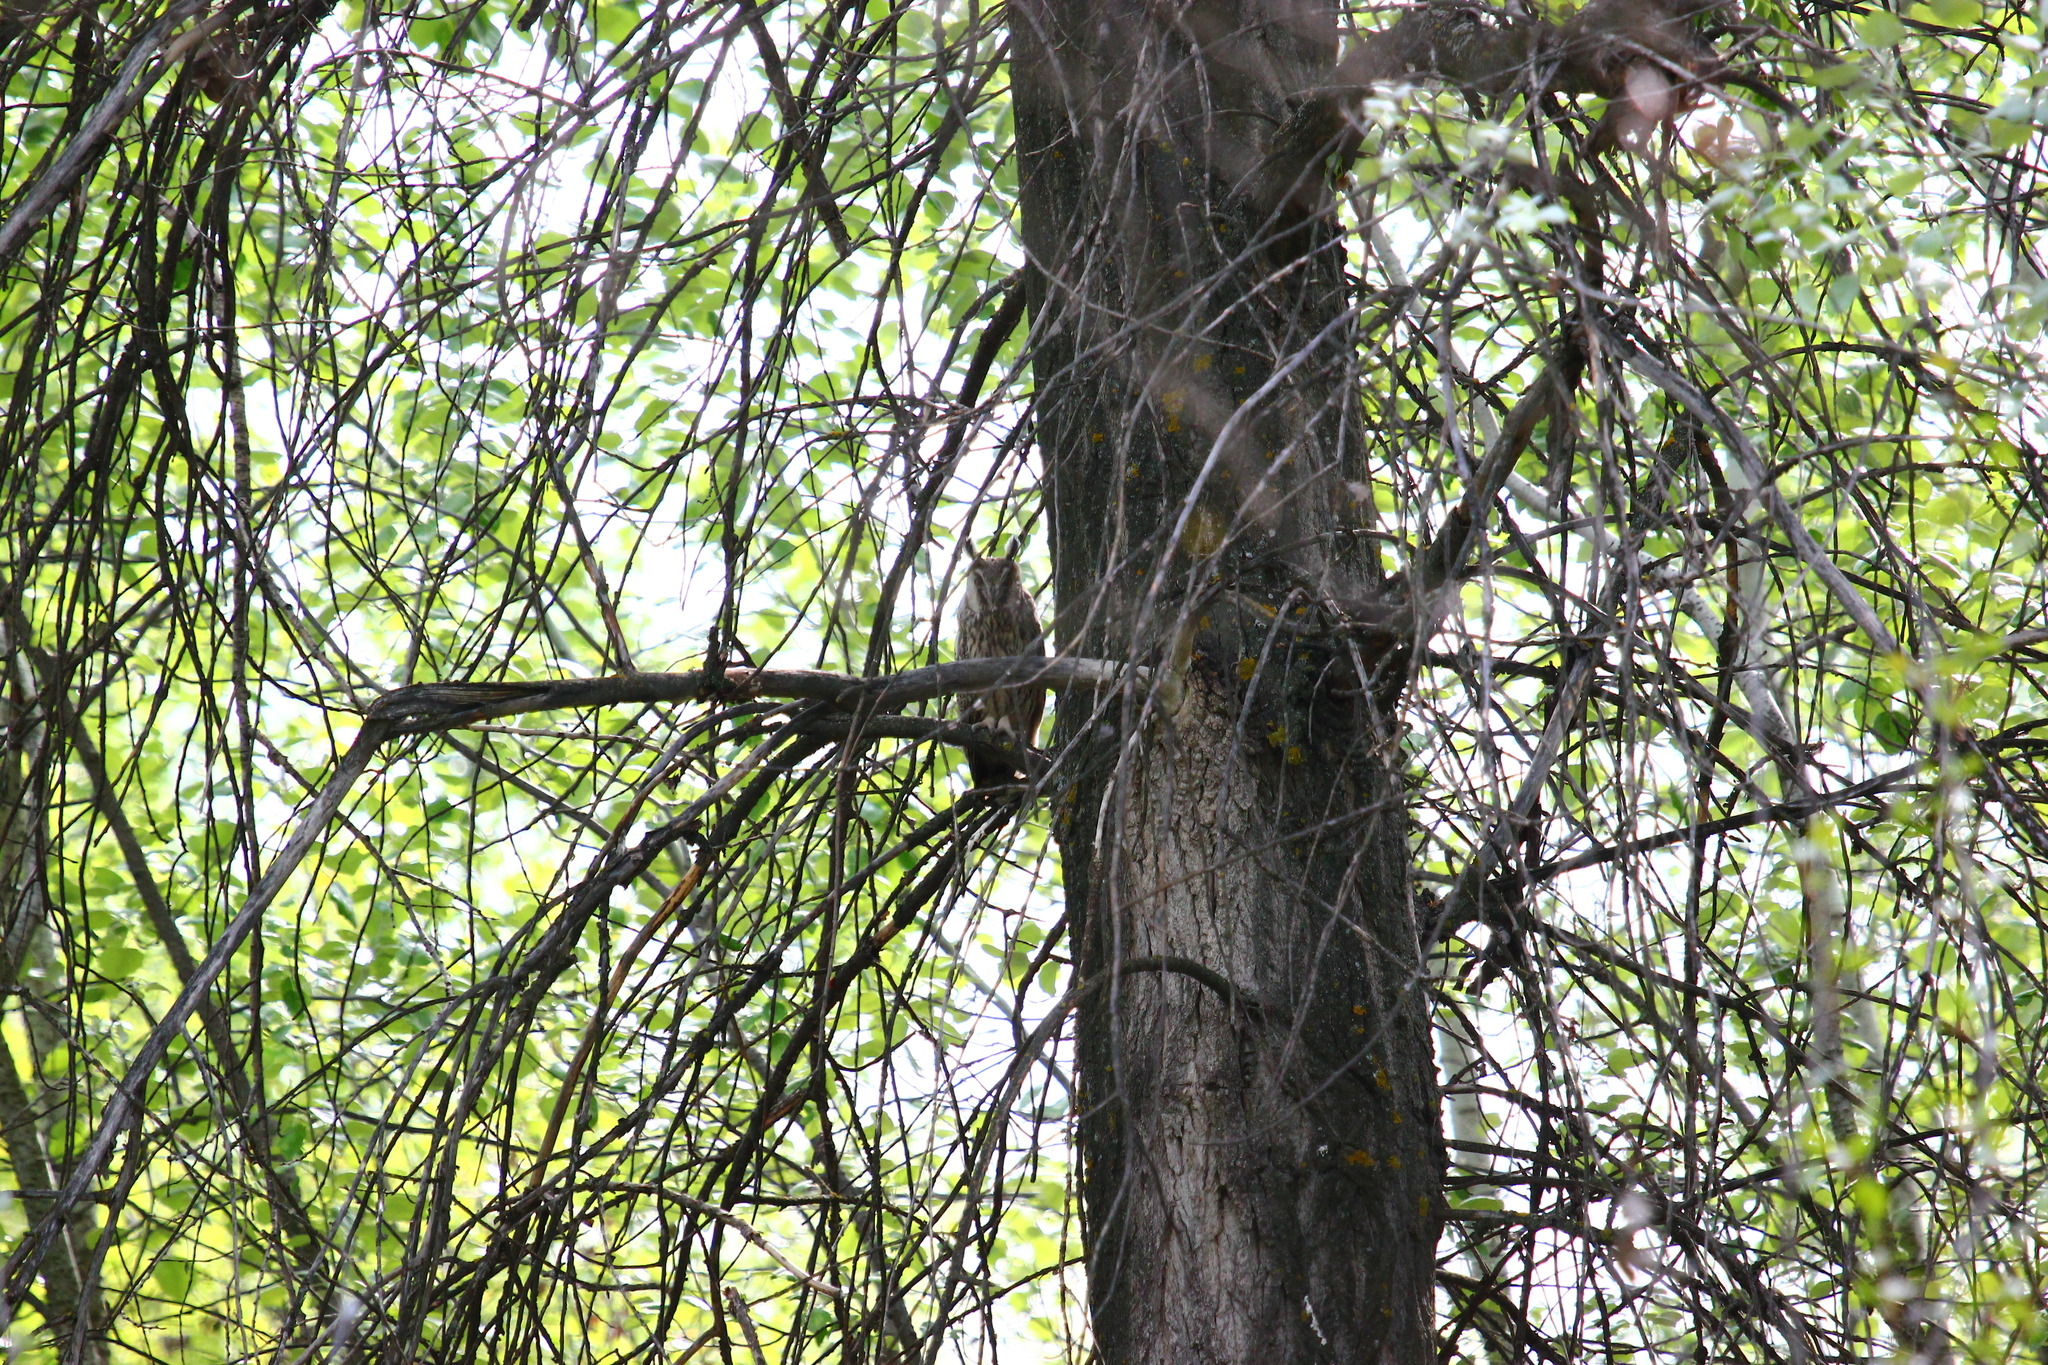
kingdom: Animalia
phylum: Chordata
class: Aves
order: Strigiformes
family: Strigidae
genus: Asio
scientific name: Asio otus
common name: Long-eared owl
